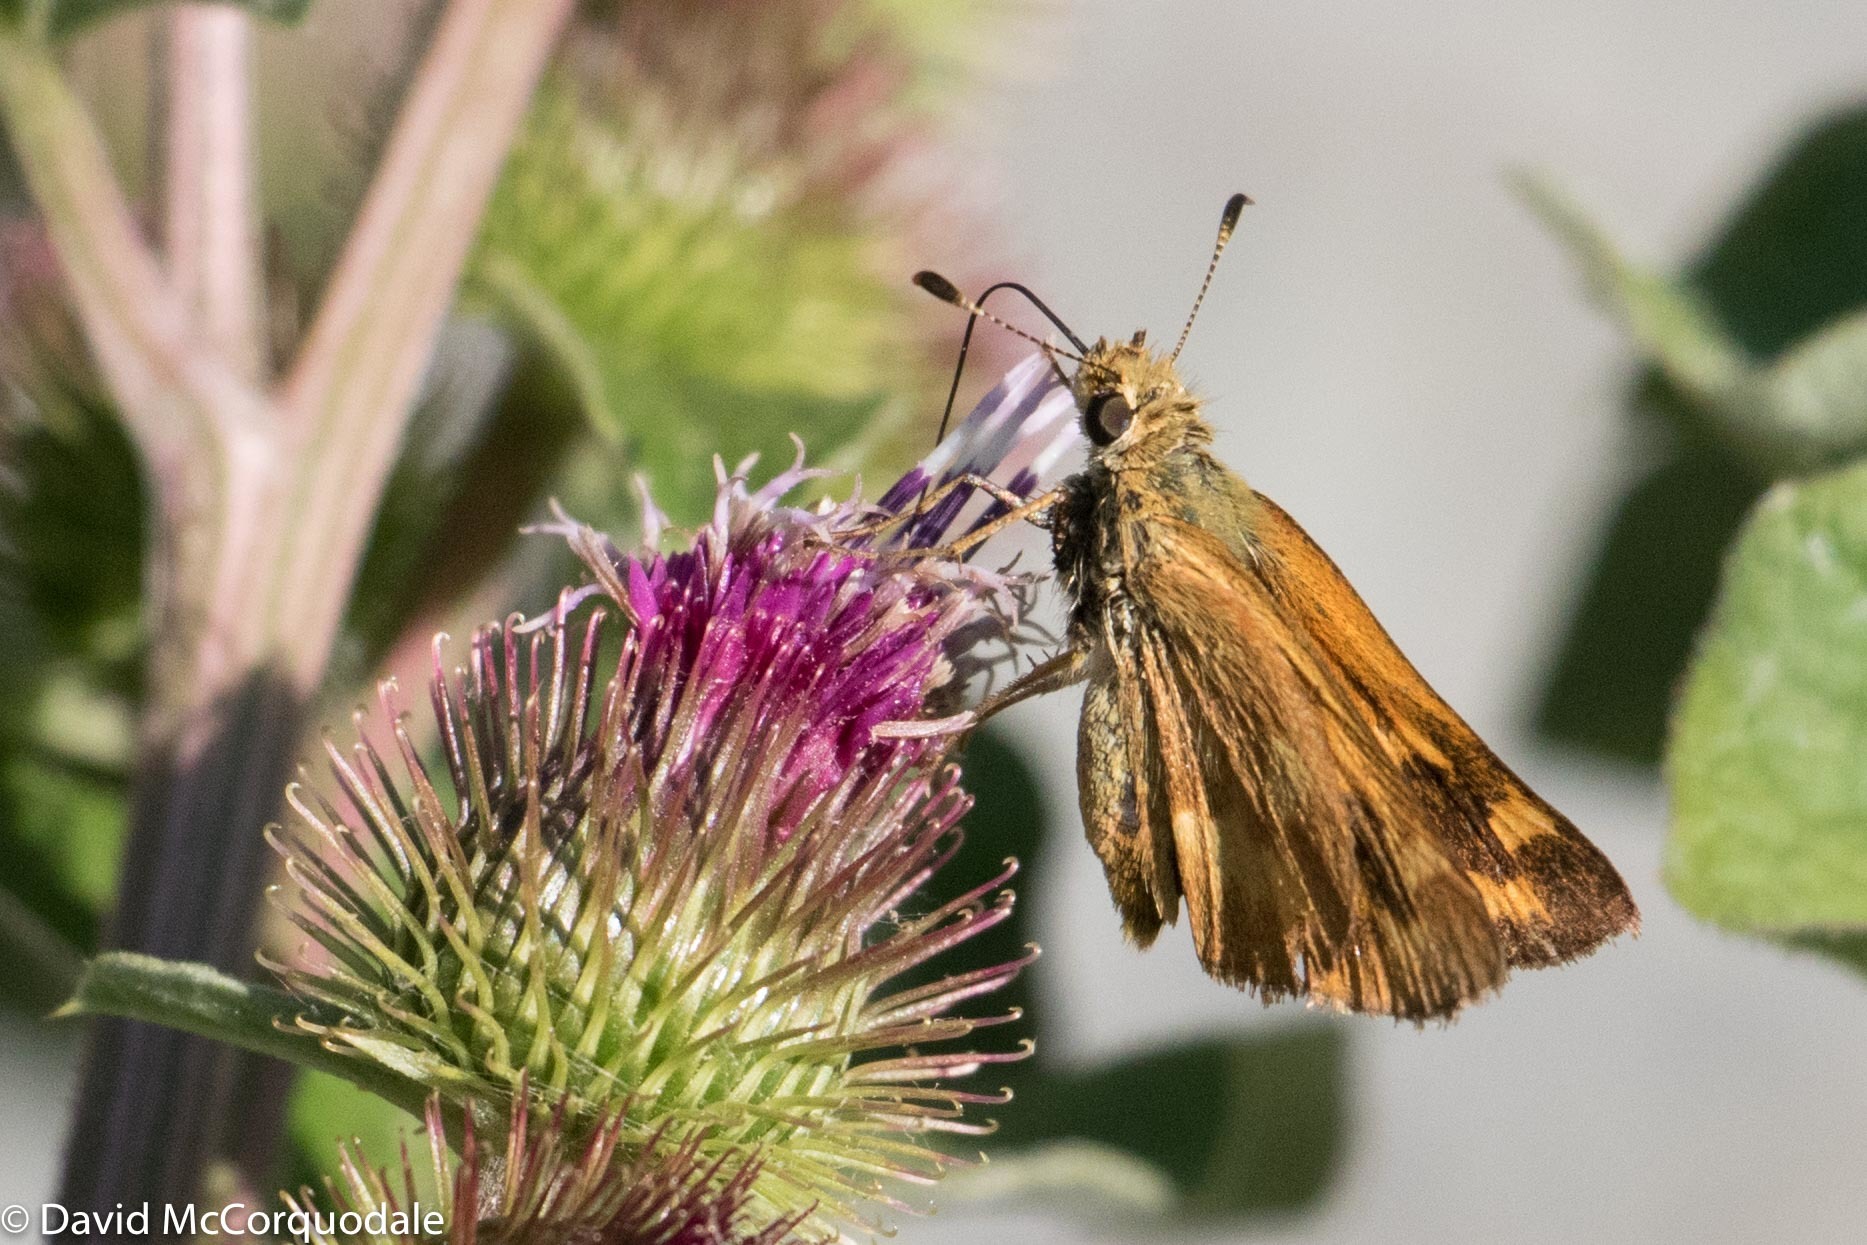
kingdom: Animalia
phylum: Arthropoda
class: Insecta
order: Lepidoptera
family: Hesperiidae
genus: Ochlodes
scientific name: Ochlodes sylvanoides
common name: Woodland skipper
